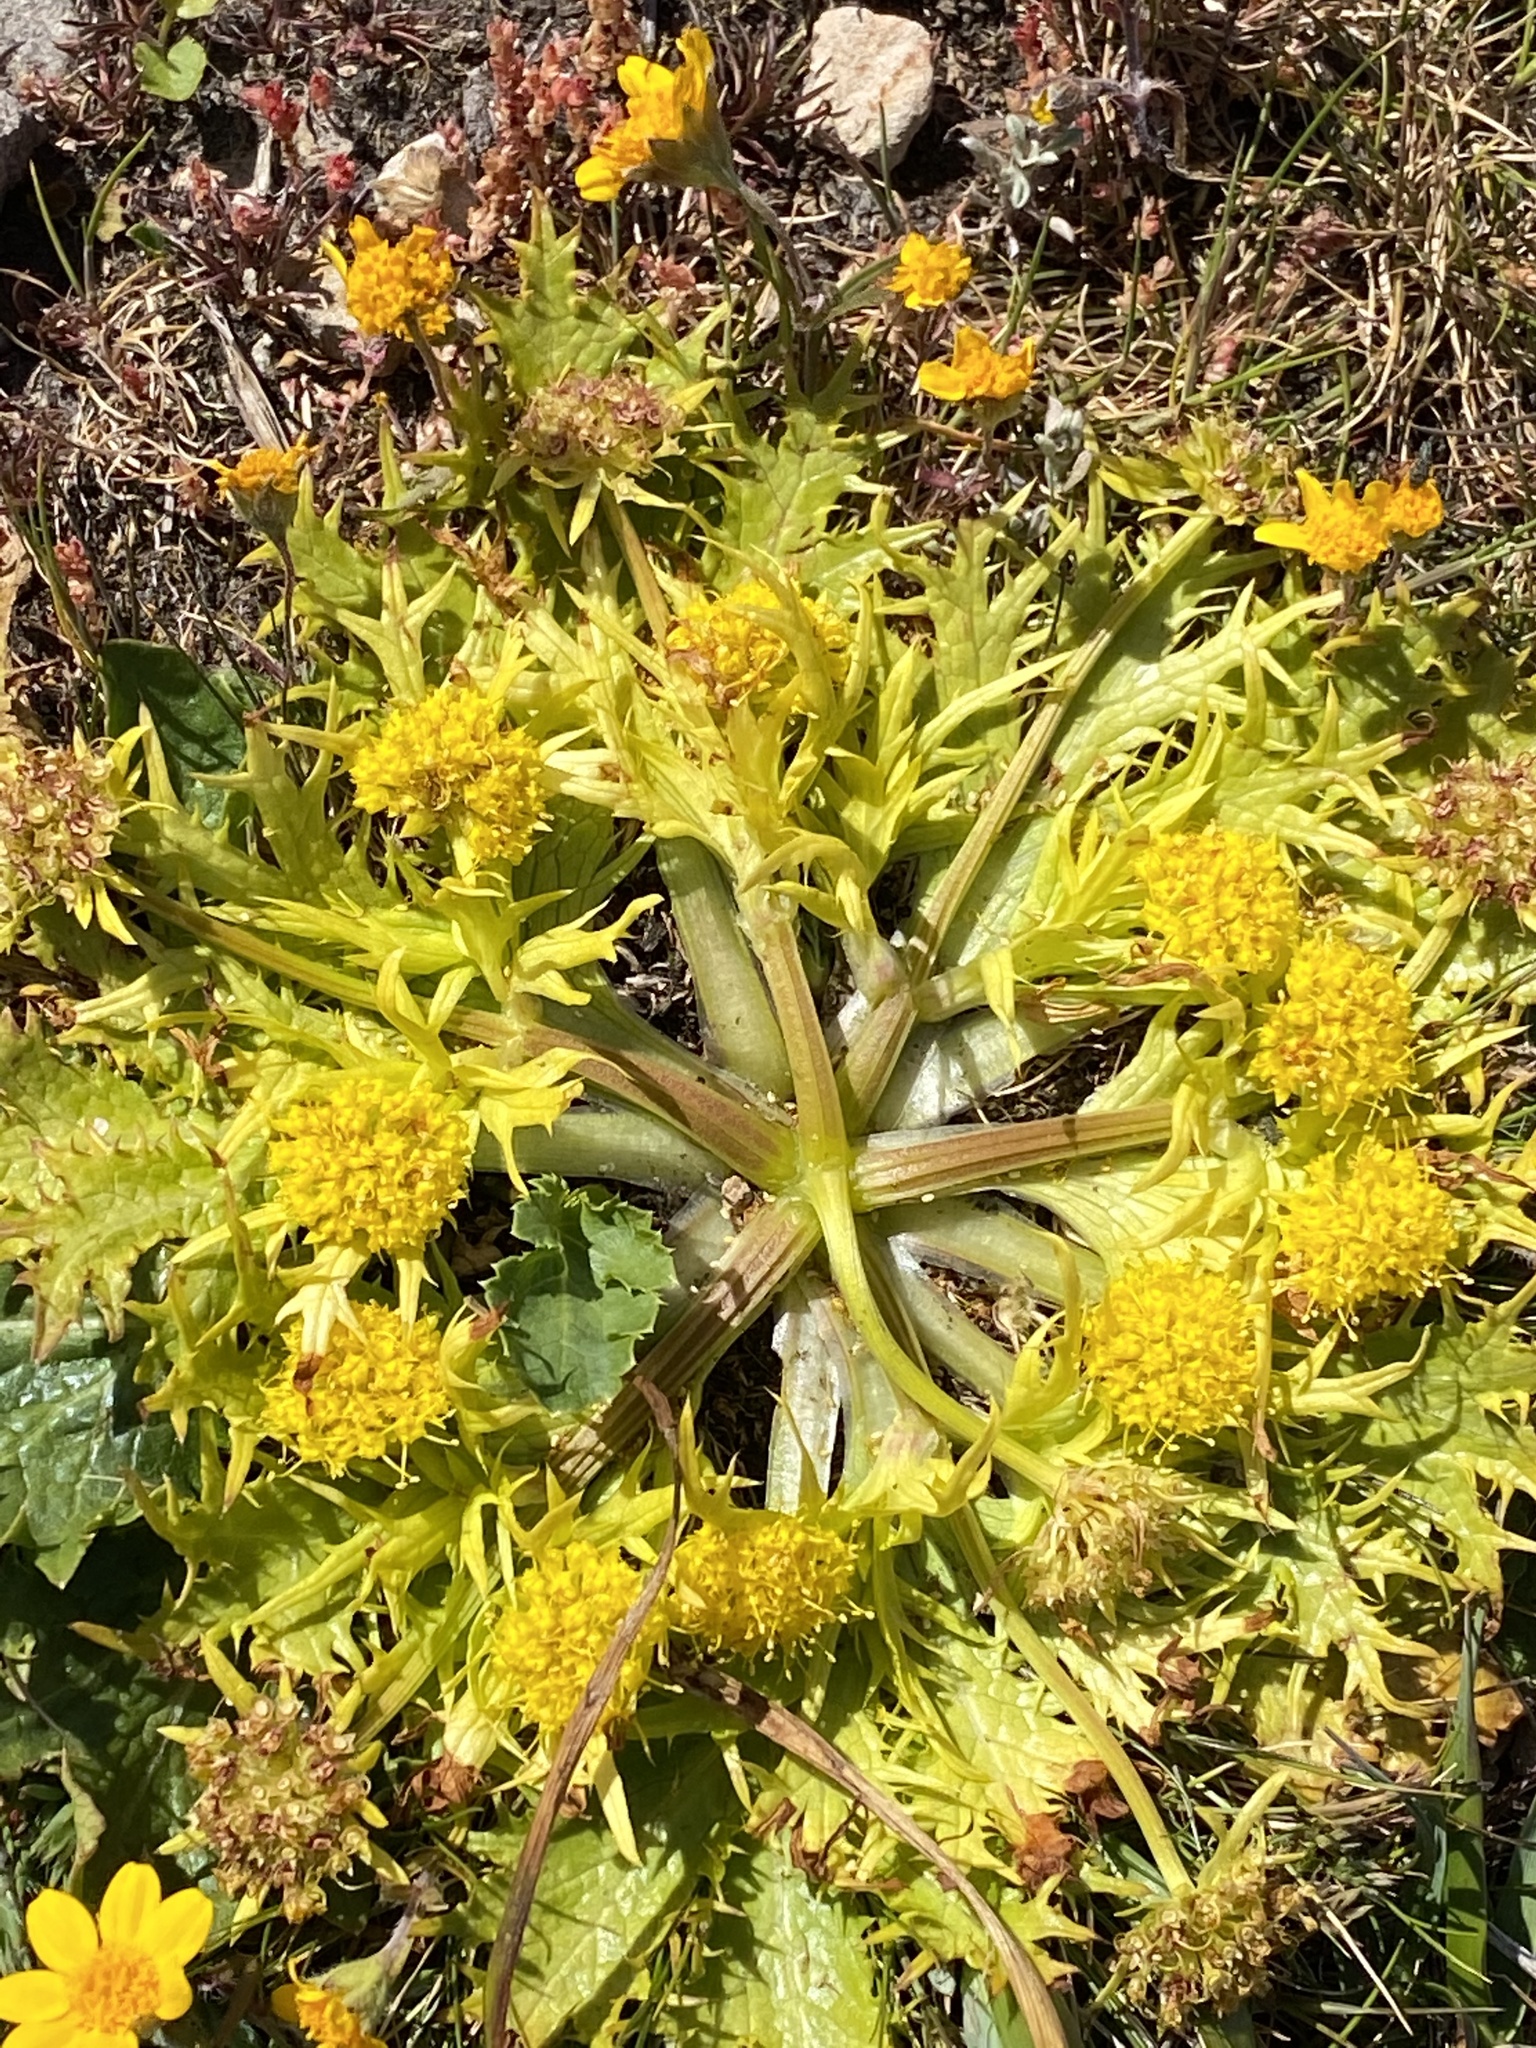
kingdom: Plantae
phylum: Tracheophyta
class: Magnoliopsida
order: Apiales
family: Apiaceae
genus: Sanicula
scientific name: Sanicula arctopoides
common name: Footsteps-of-spring
